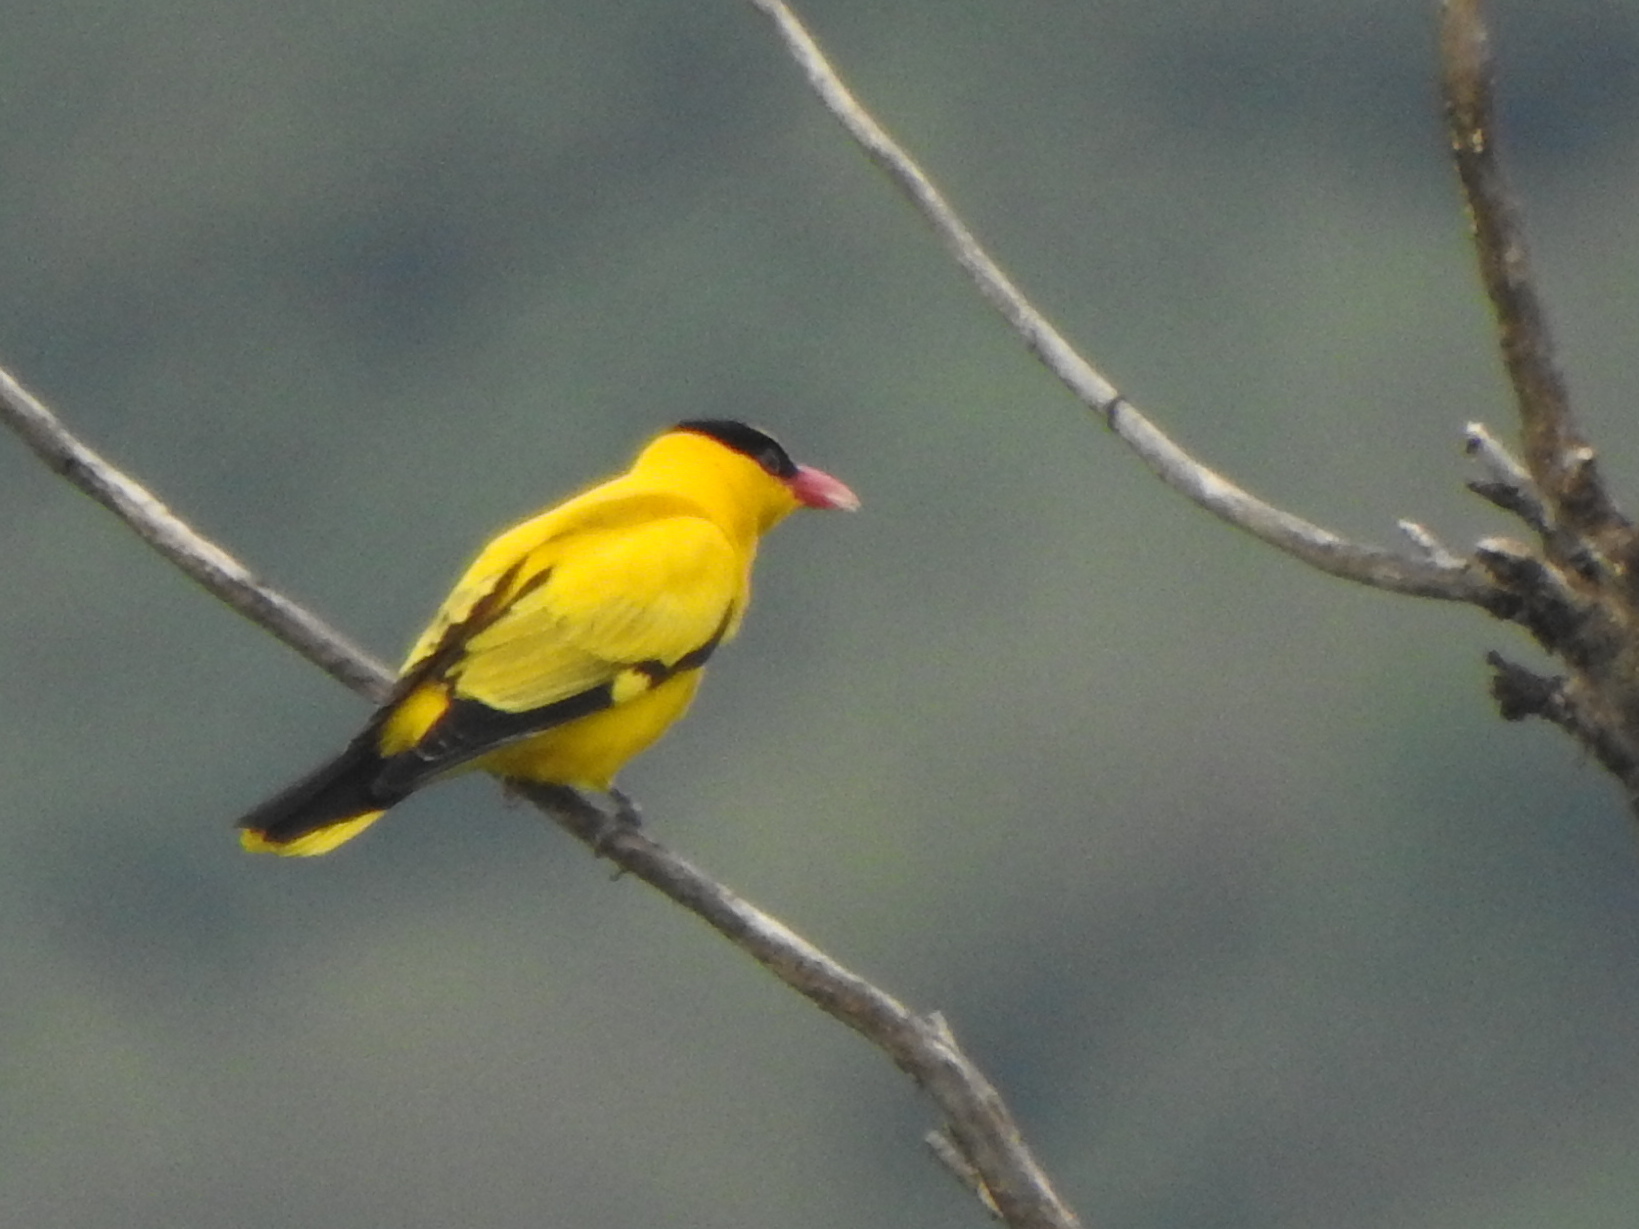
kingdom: Animalia
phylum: Chordata
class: Aves
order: Passeriformes
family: Oriolidae
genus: Oriolus
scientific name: Oriolus chinensis
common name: Black-naped oriole
